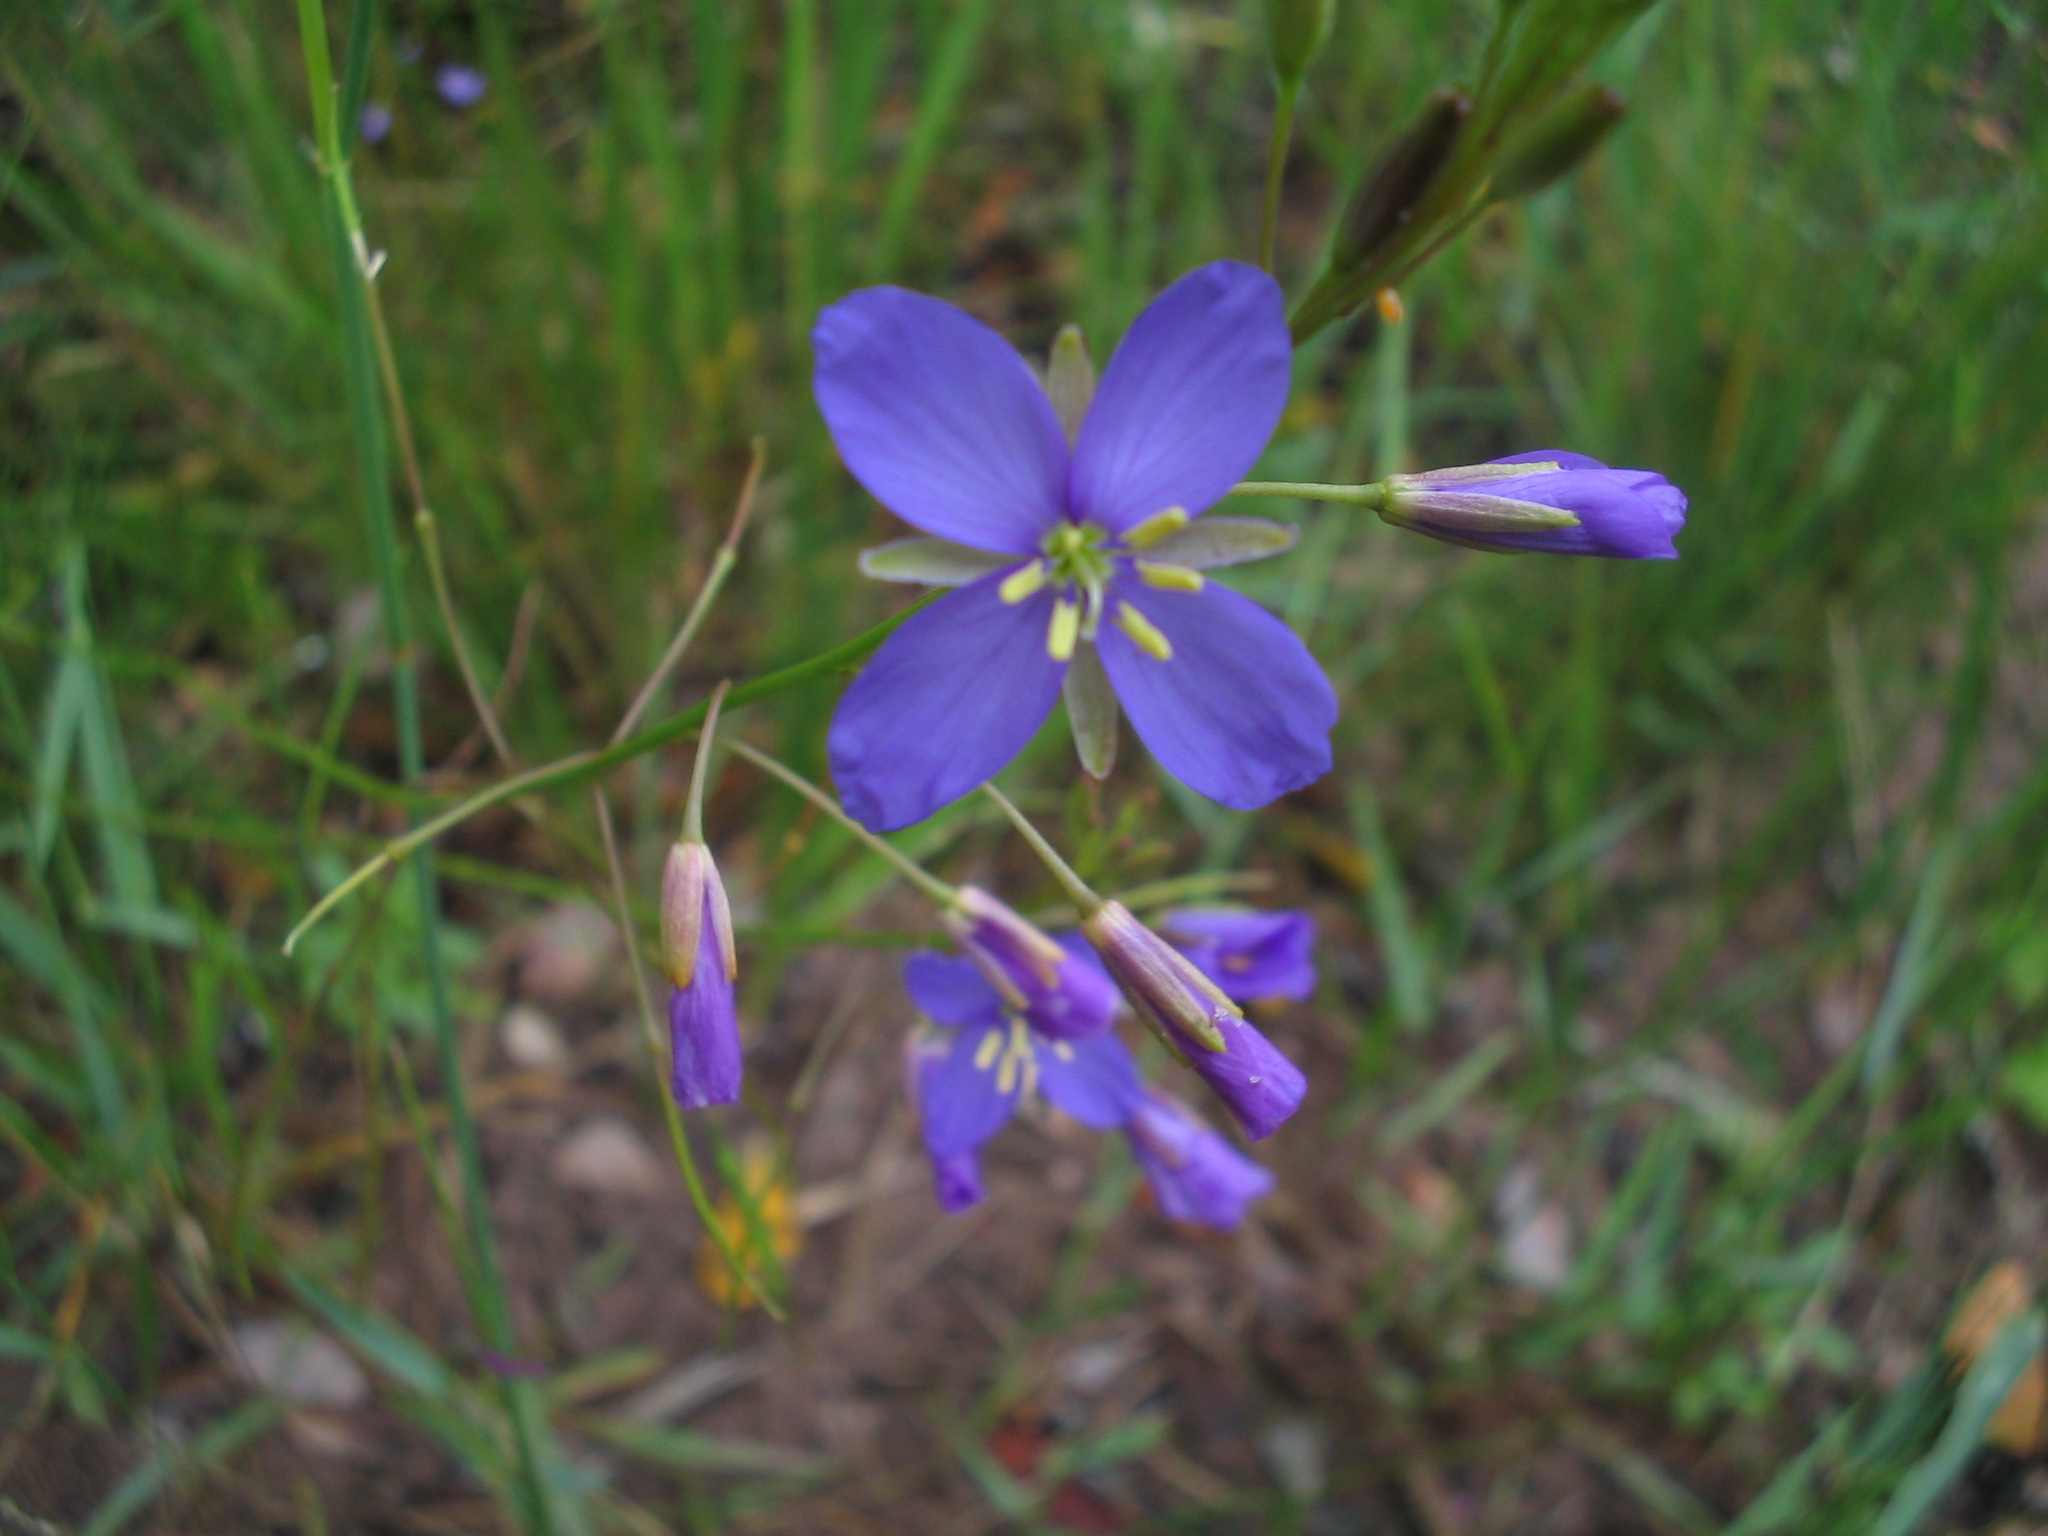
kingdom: Plantae
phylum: Tracheophyta
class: Magnoliopsida
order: Brassicales
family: Brassicaceae
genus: Heliophila
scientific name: Heliophila subulata
